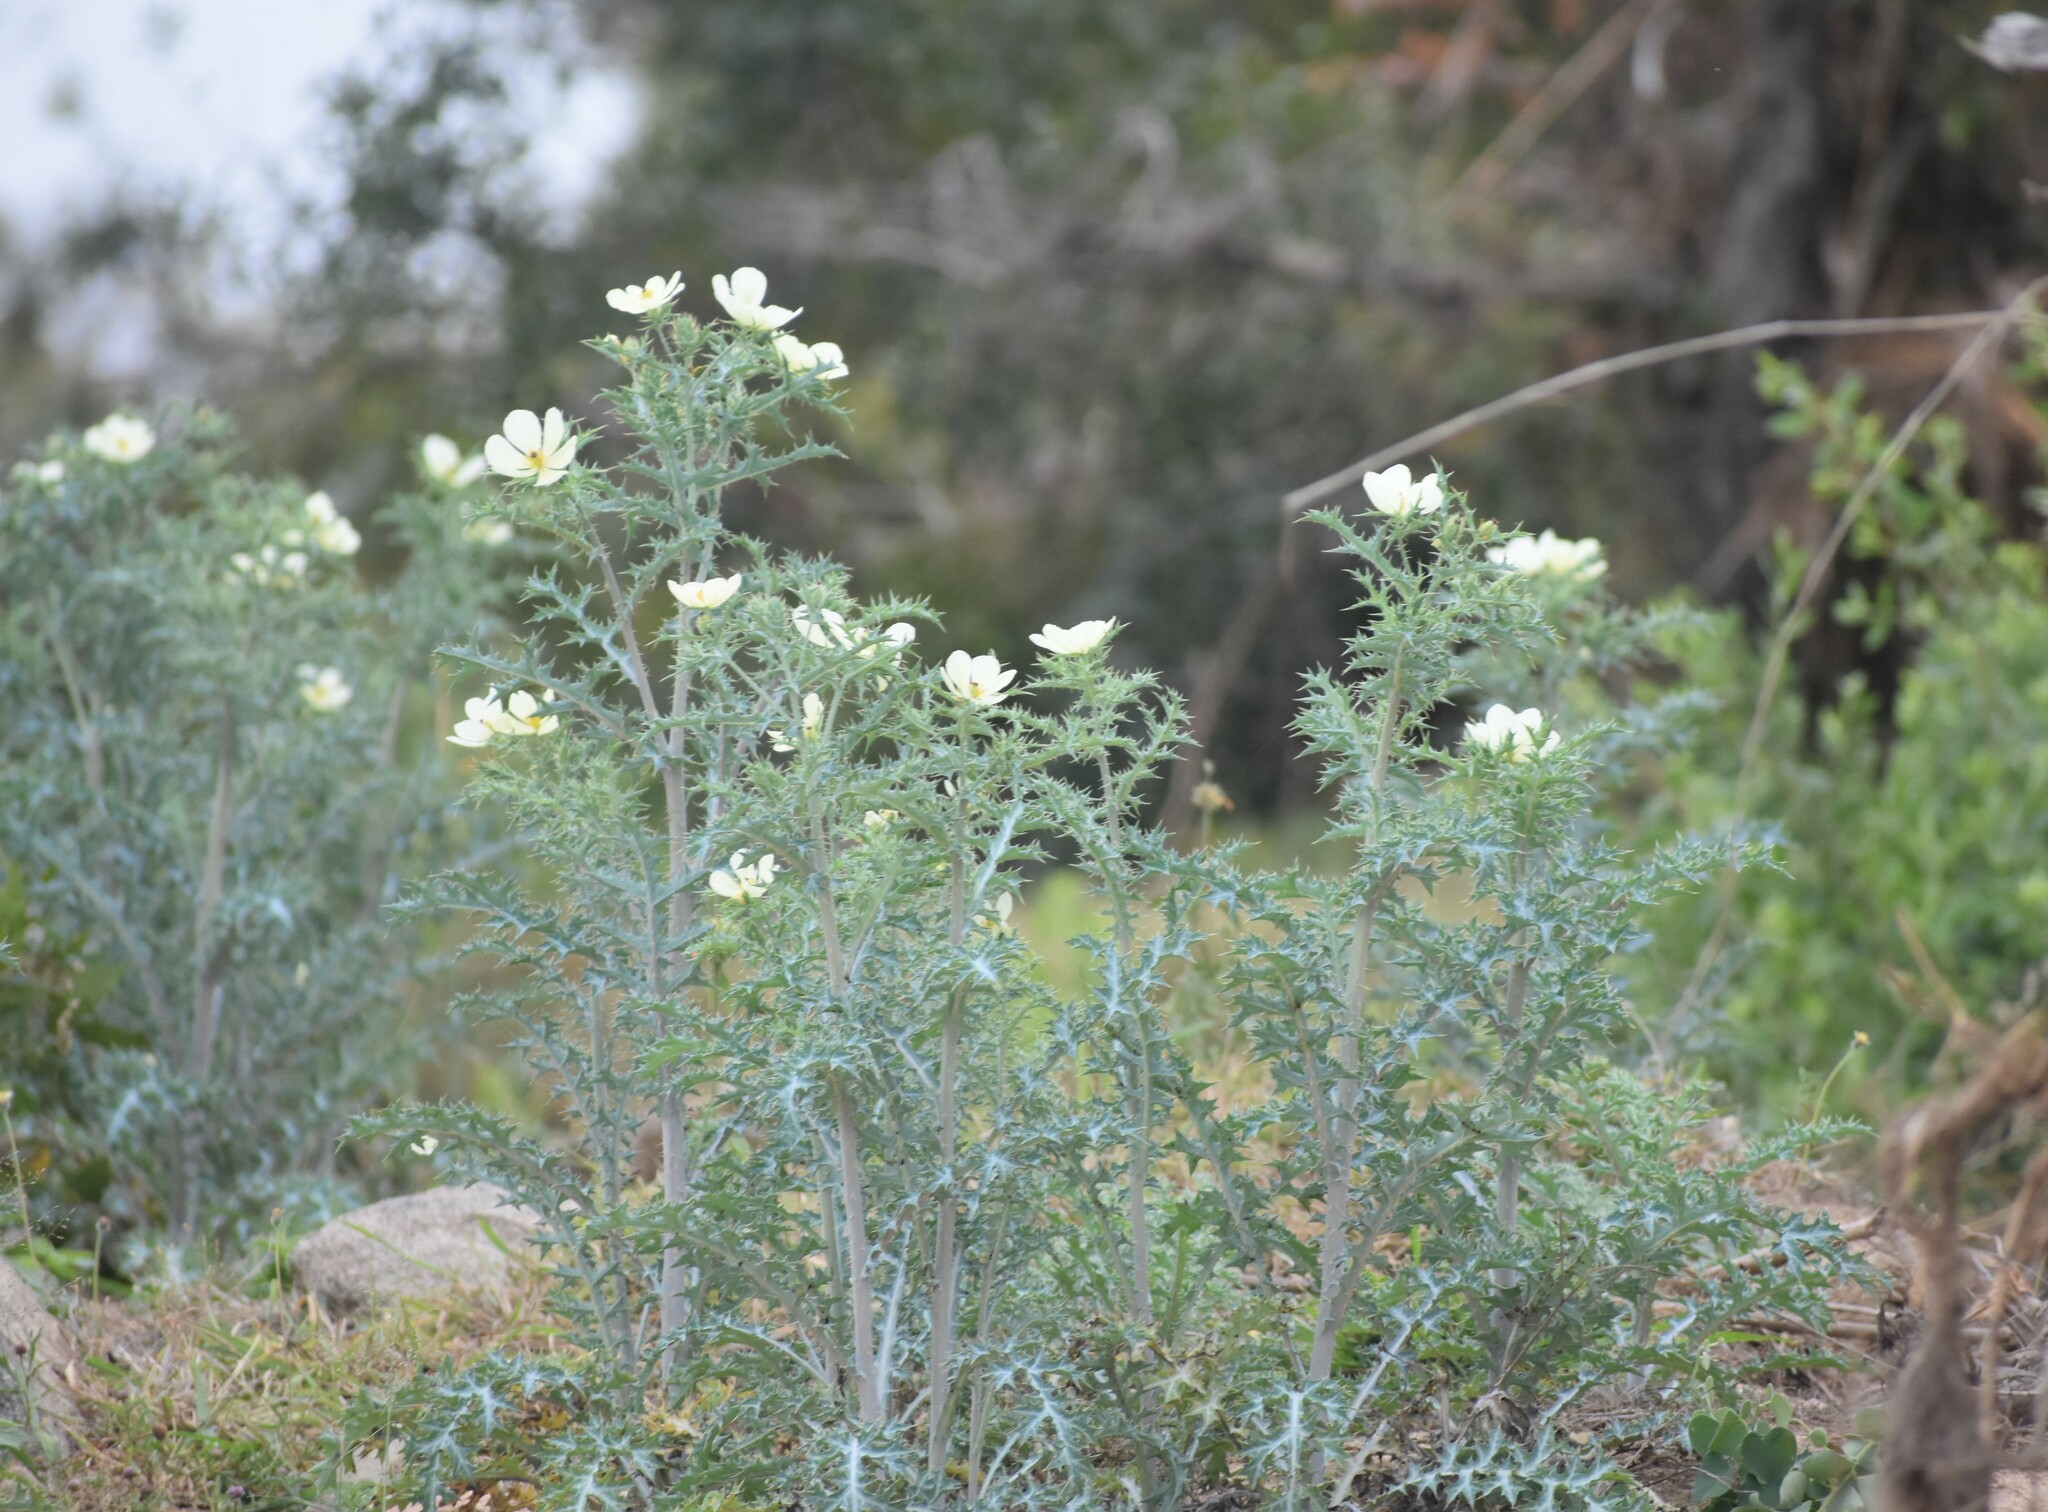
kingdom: Plantae
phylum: Tracheophyta
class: Magnoliopsida
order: Ranunculales
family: Papaveraceae
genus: Argemone
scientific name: Argemone ochroleuca
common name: White-flower mexican-poppy
